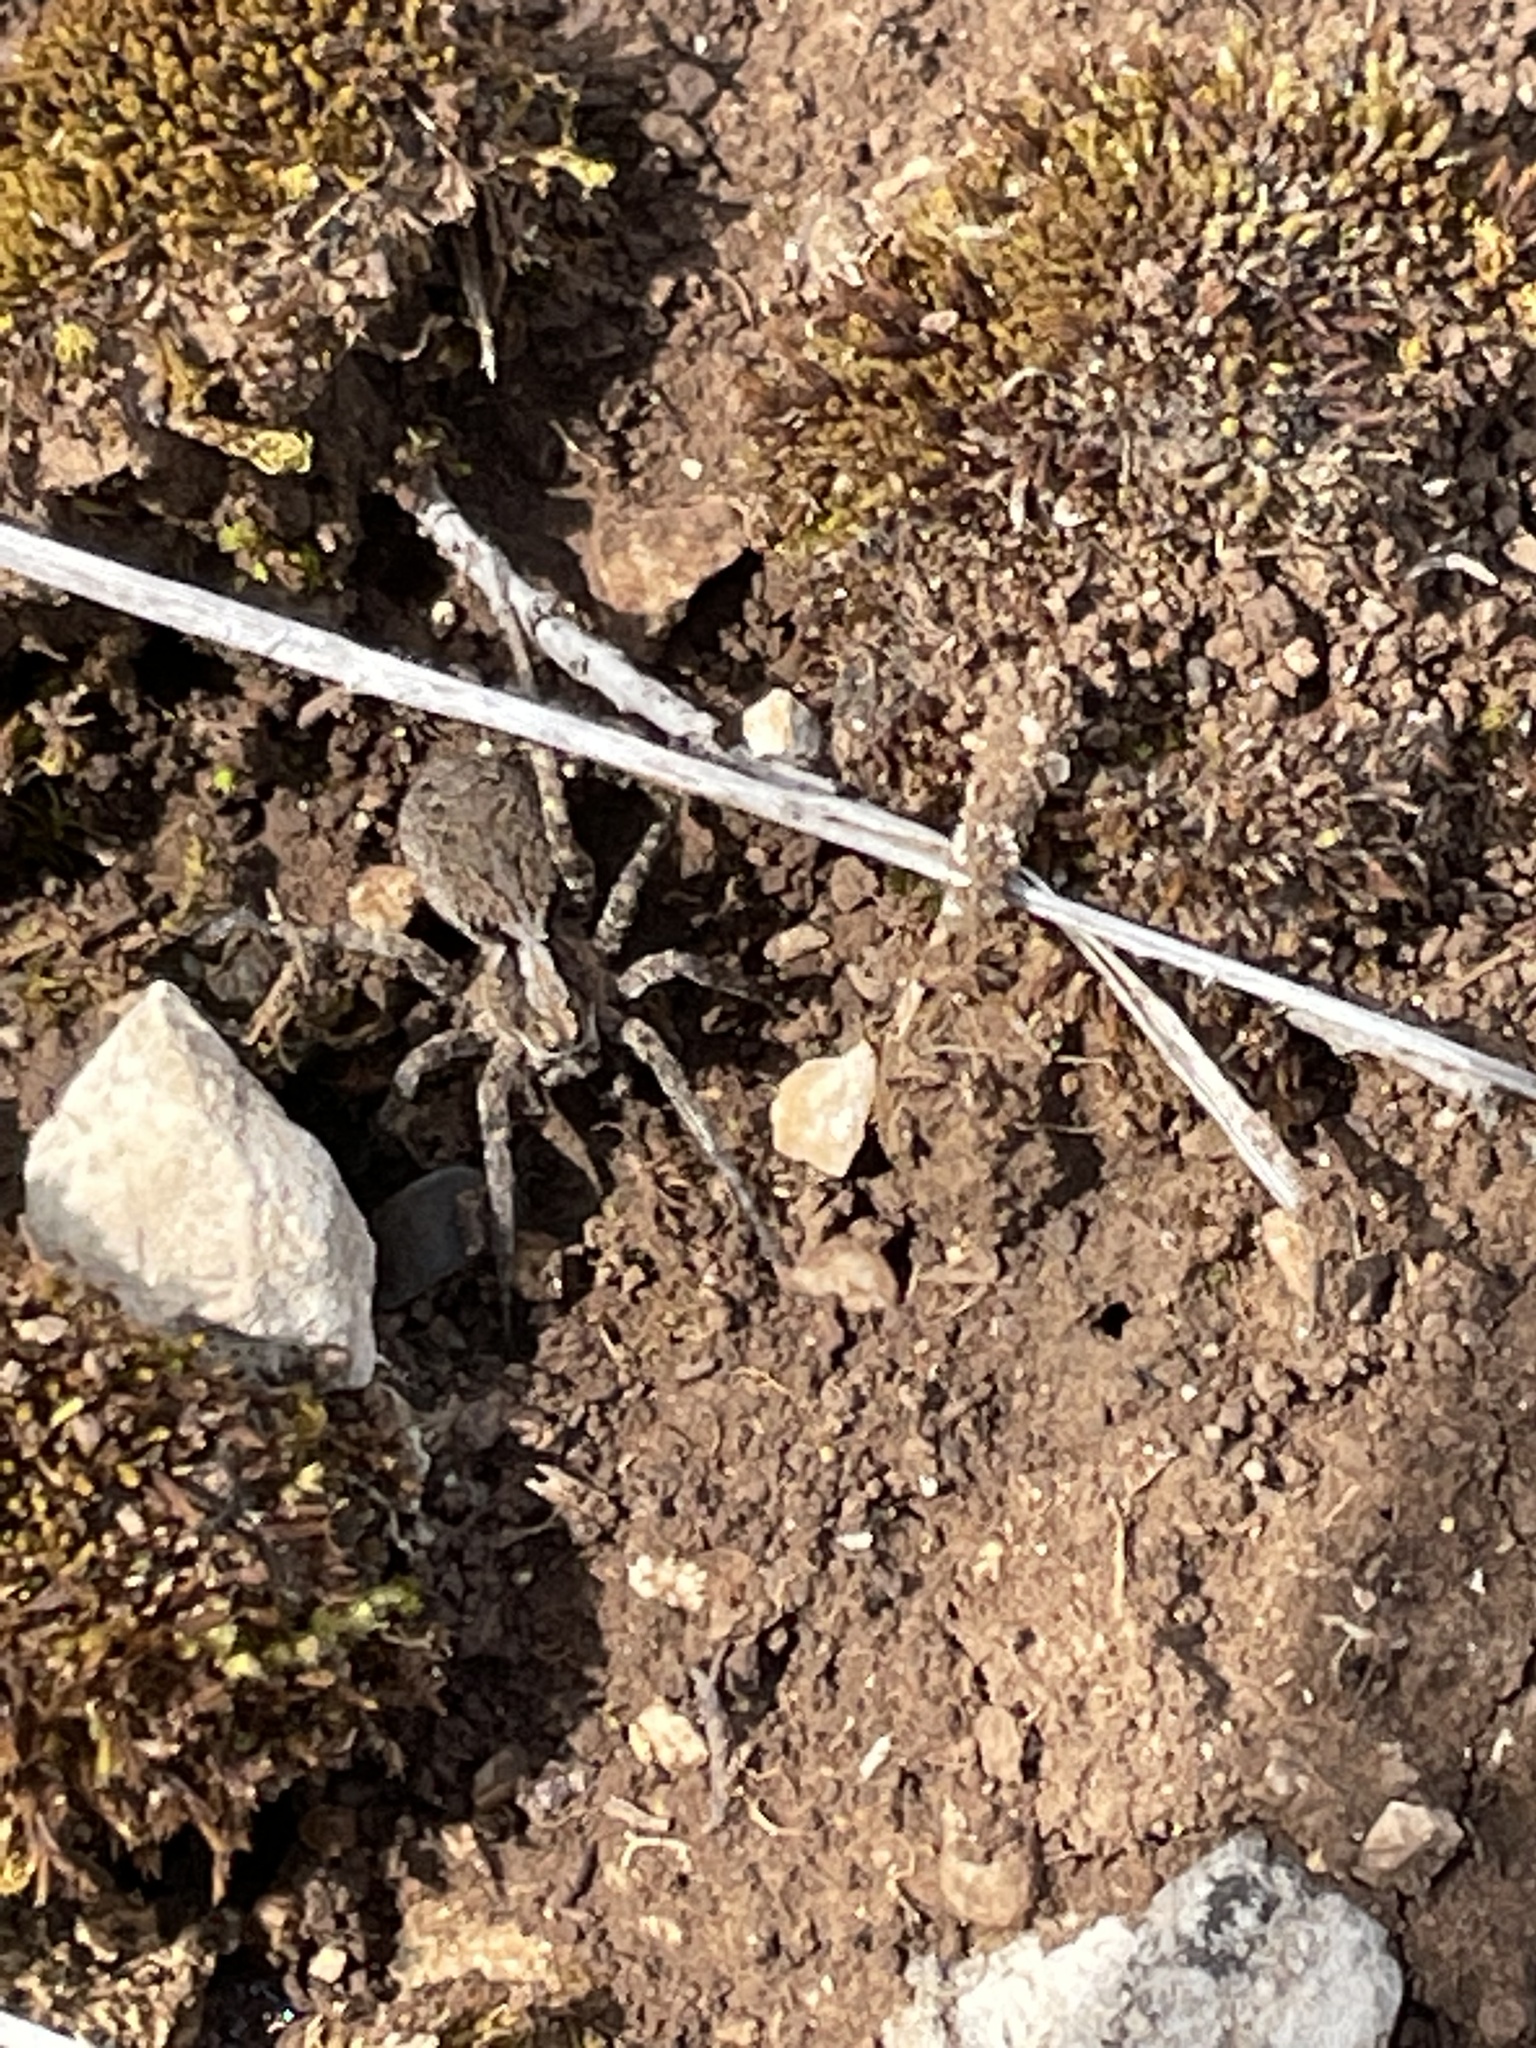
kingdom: Animalia
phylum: Arthropoda
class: Arachnida
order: Araneae
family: Lycosidae
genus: Alopecosa
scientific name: Alopecosa
